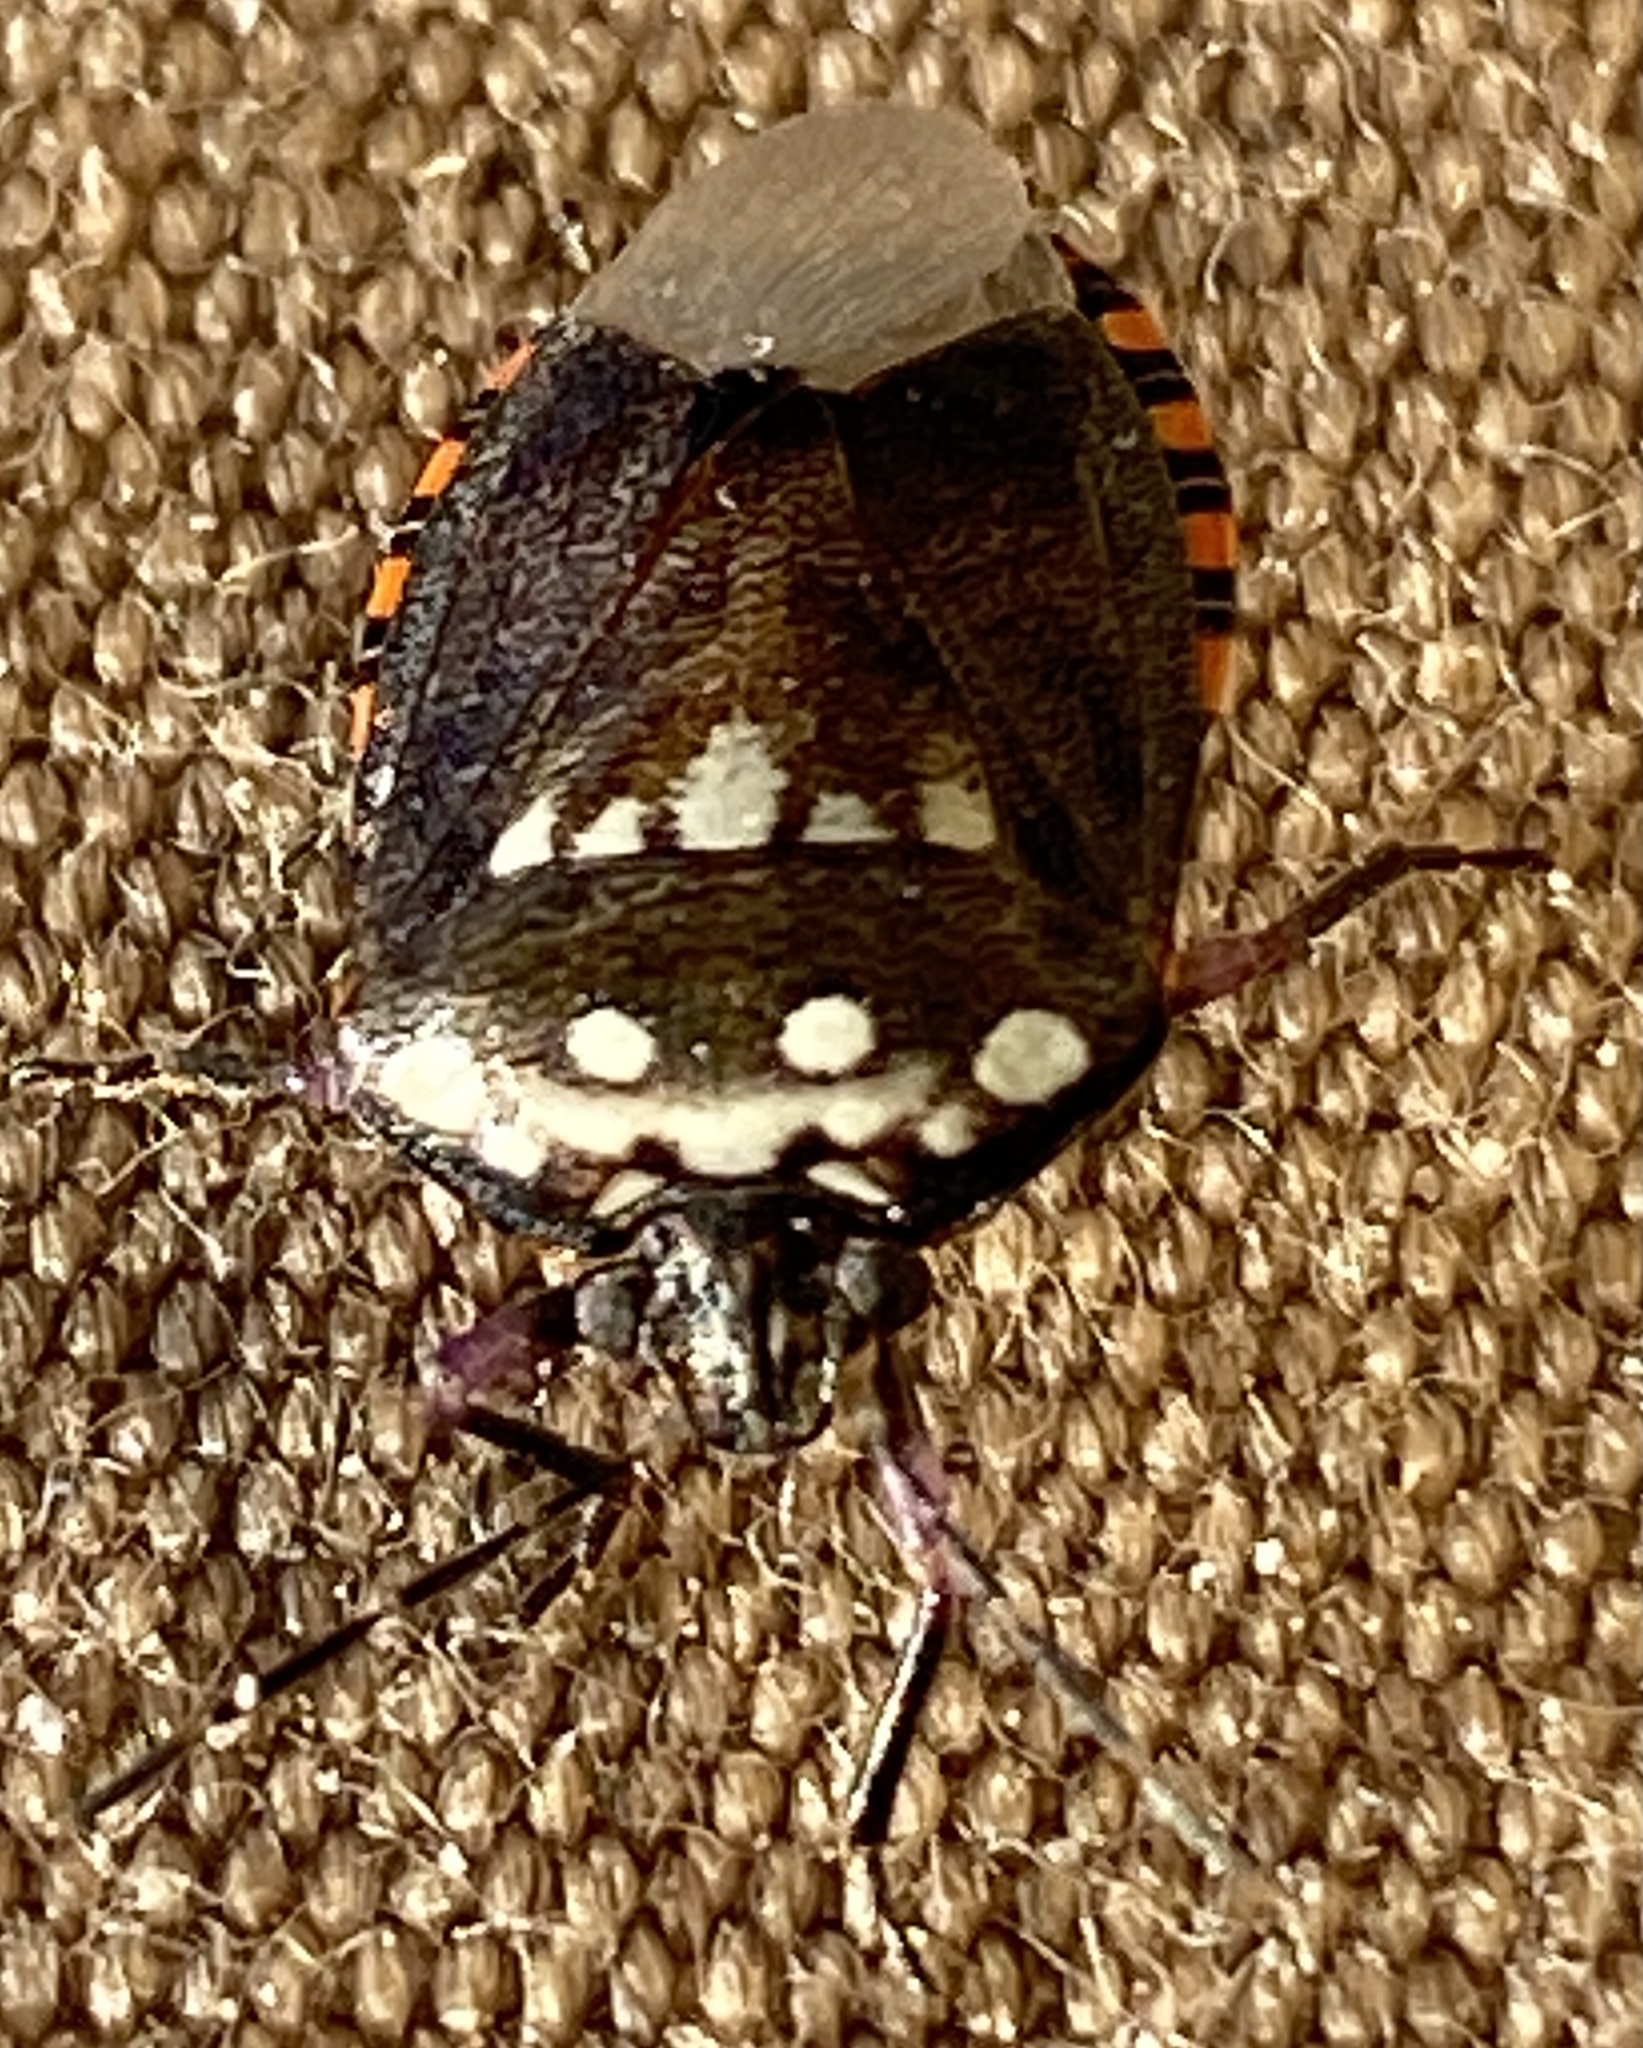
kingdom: Animalia
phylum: Arthropoda
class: Insecta
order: Hemiptera
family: Pentatomidae
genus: Antestia
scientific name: Antestia
